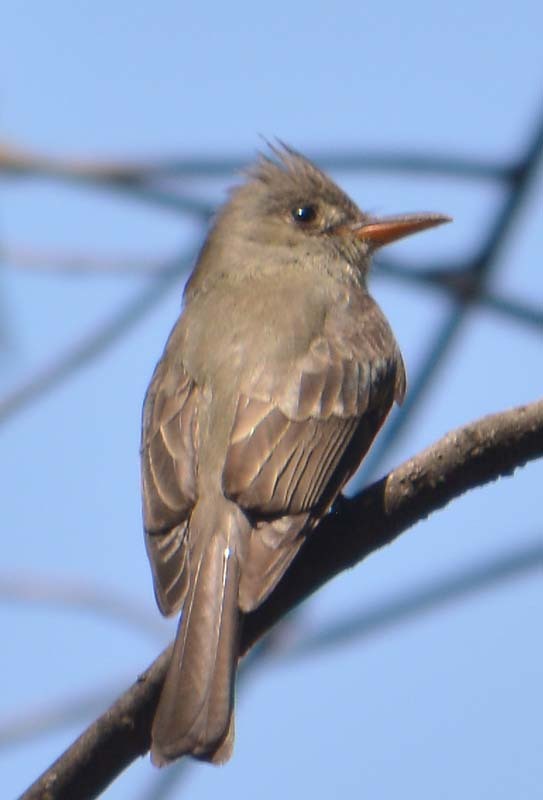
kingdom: Animalia
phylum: Chordata
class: Aves
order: Passeriformes
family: Tyrannidae
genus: Contopus
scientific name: Contopus pertinax
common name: Greater pewee
